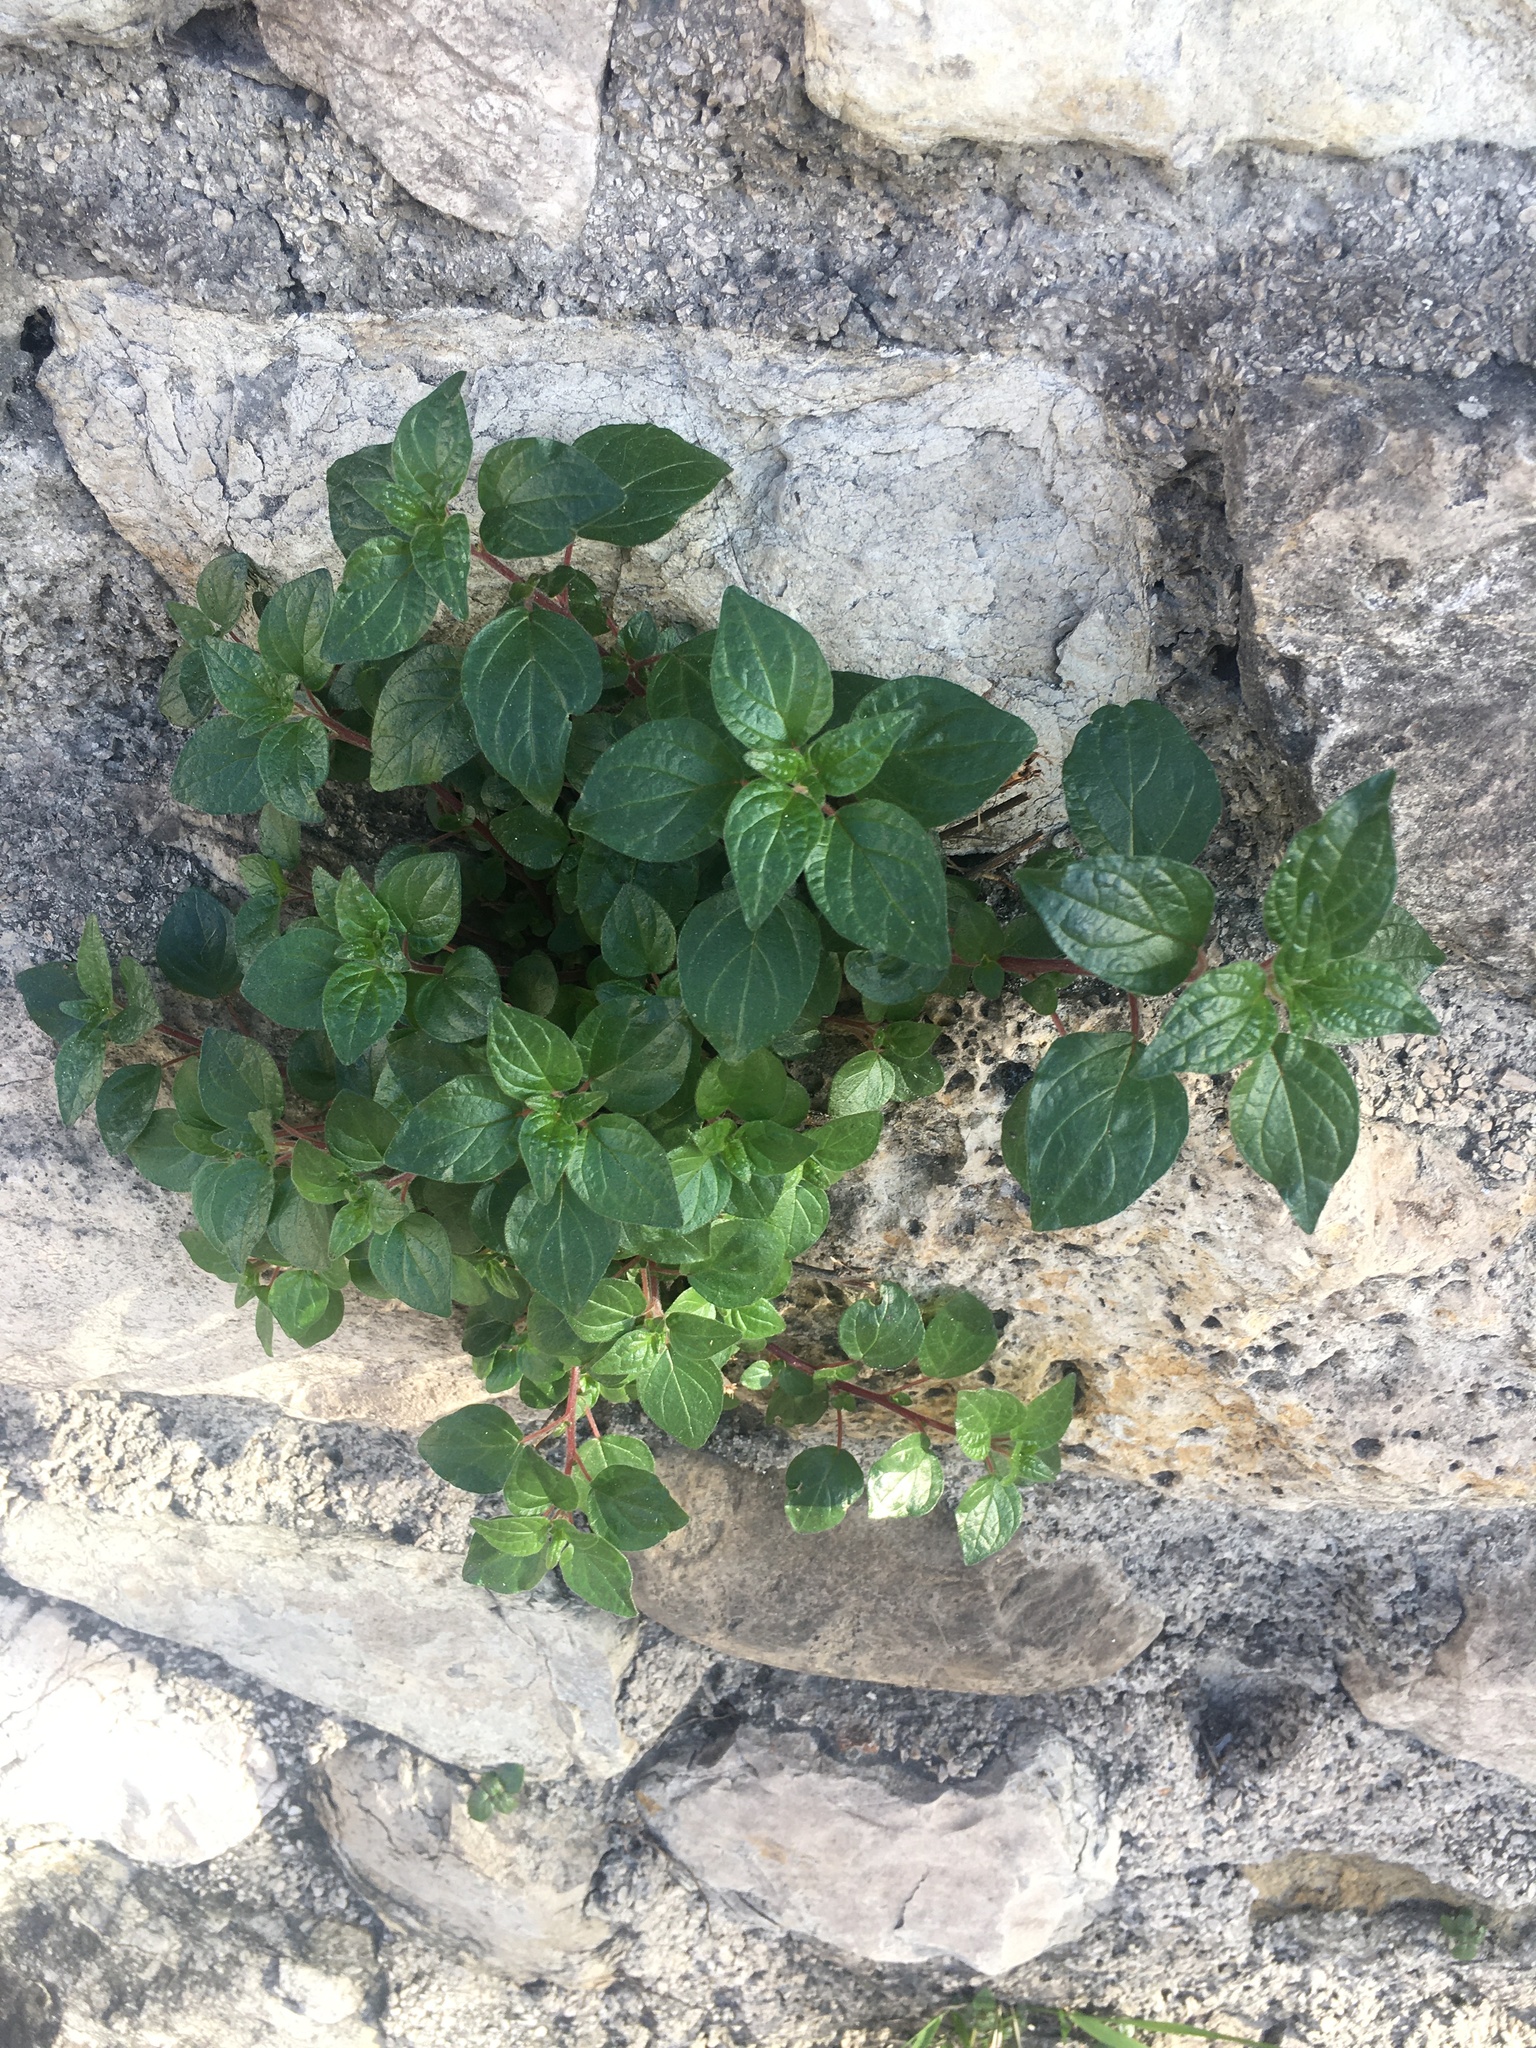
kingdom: Plantae
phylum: Tracheophyta
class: Magnoliopsida
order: Rosales
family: Urticaceae
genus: Parietaria
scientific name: Parietaria judaica
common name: Pellitory-of-the-wall
